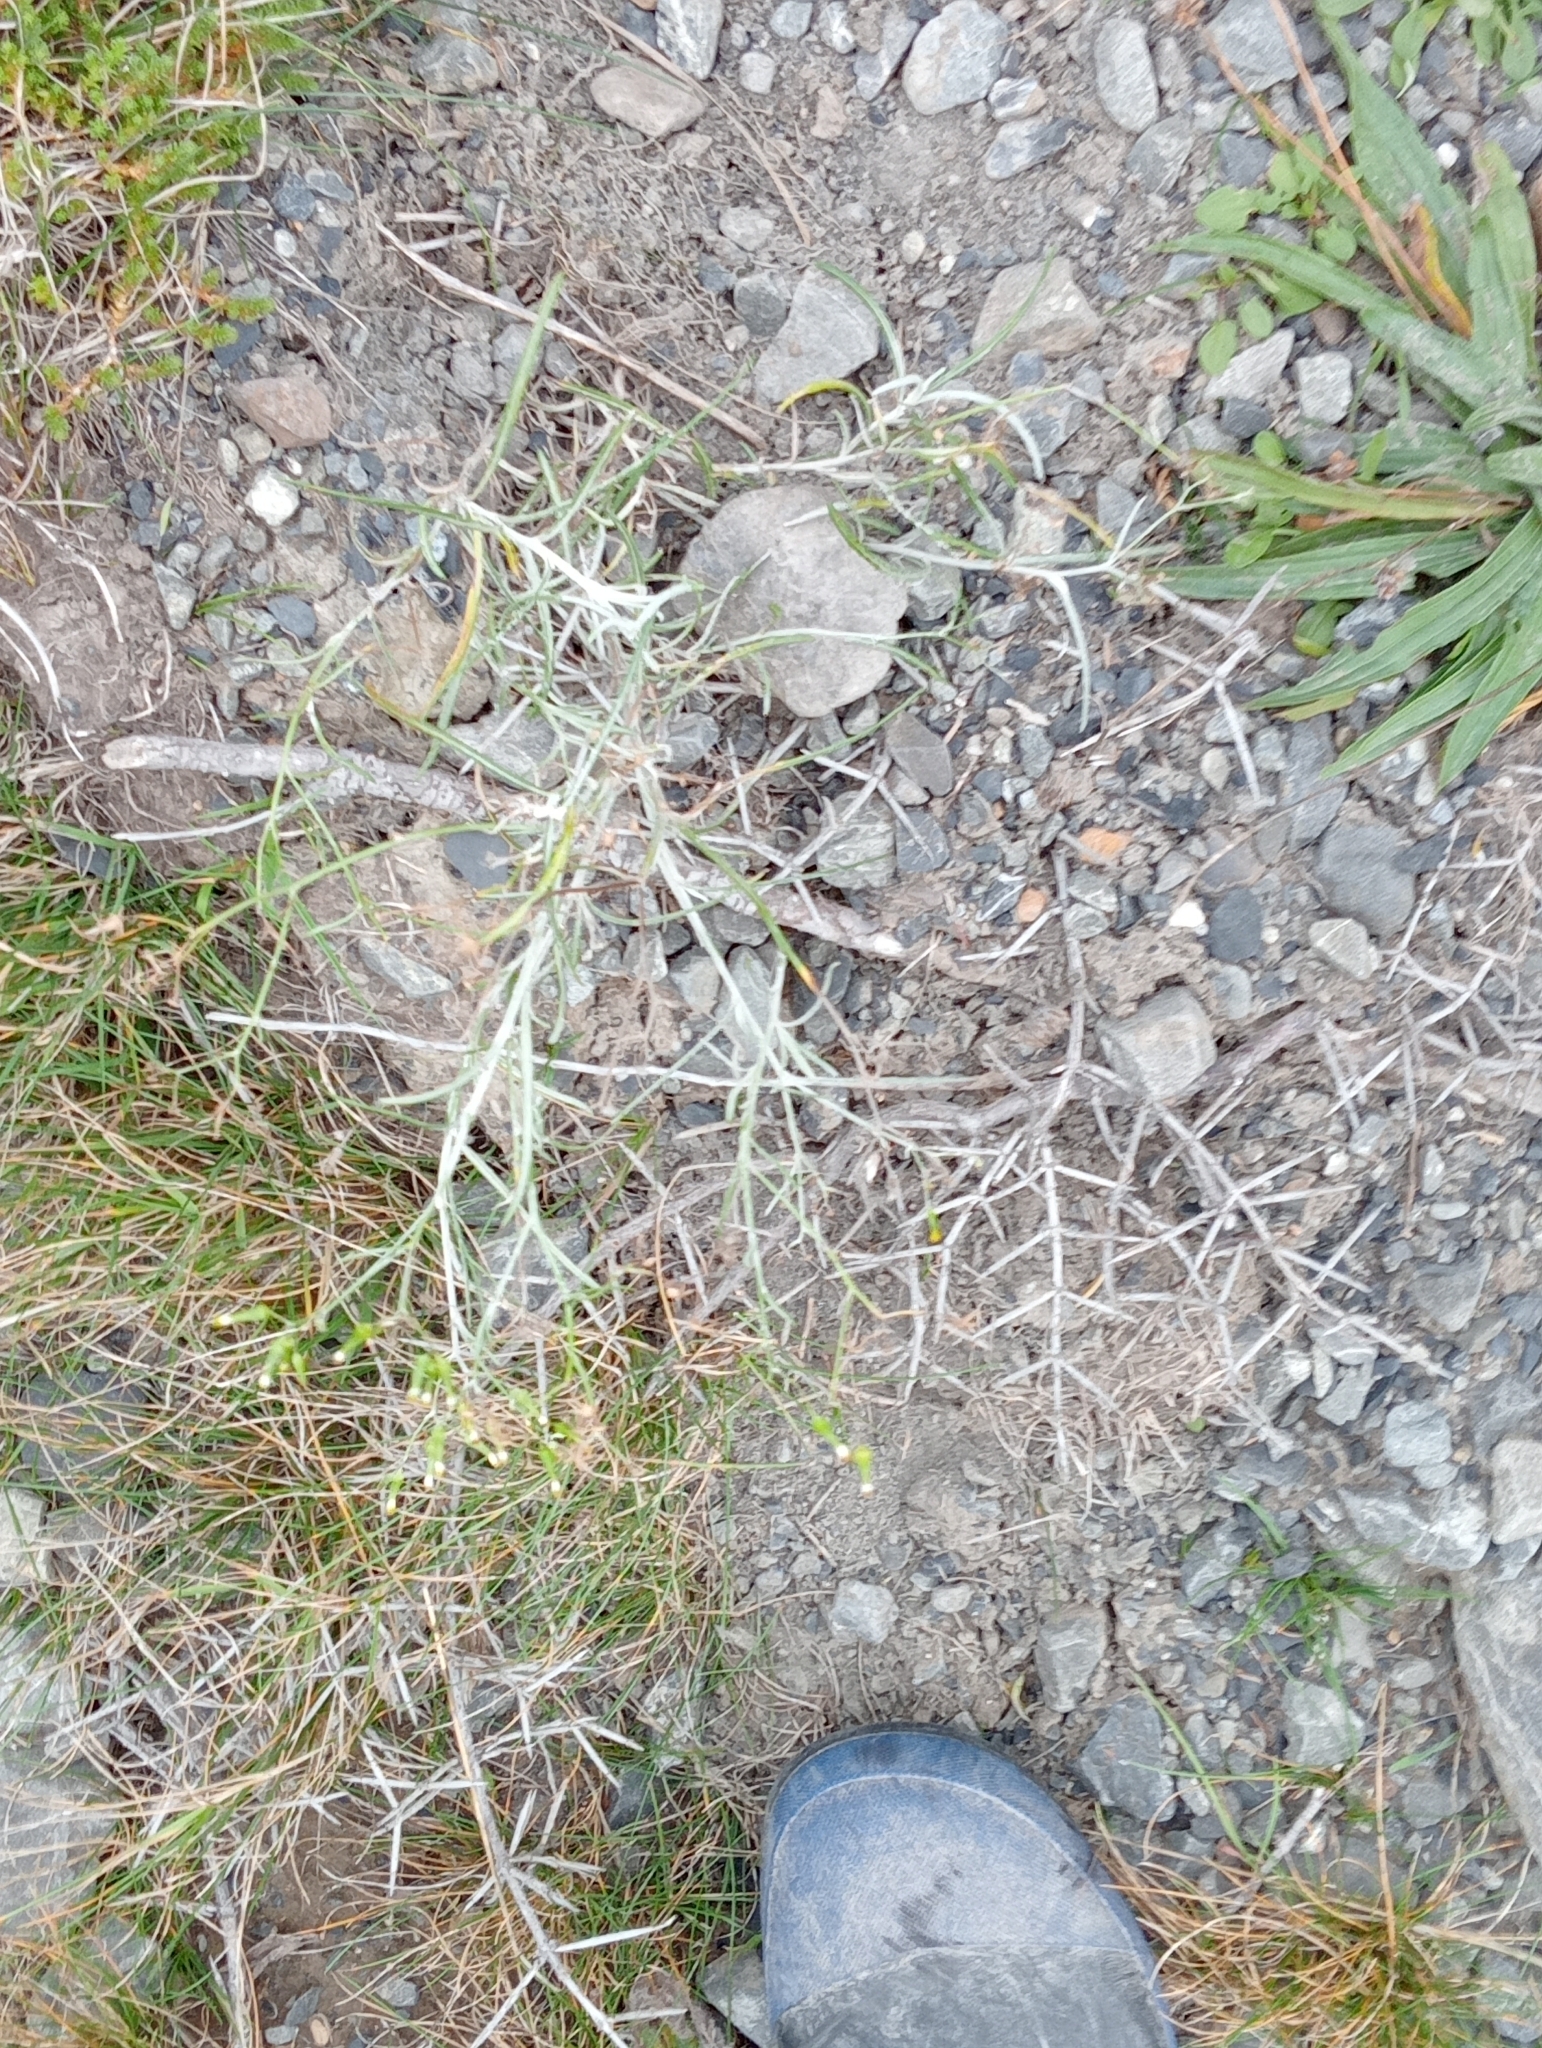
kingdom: Plantae
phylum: Tracheophyta
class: Magnoliopsida
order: Asterales
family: Asteraceae
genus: Senecio
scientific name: Senecio quadridentatus
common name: Cotton fireweed
